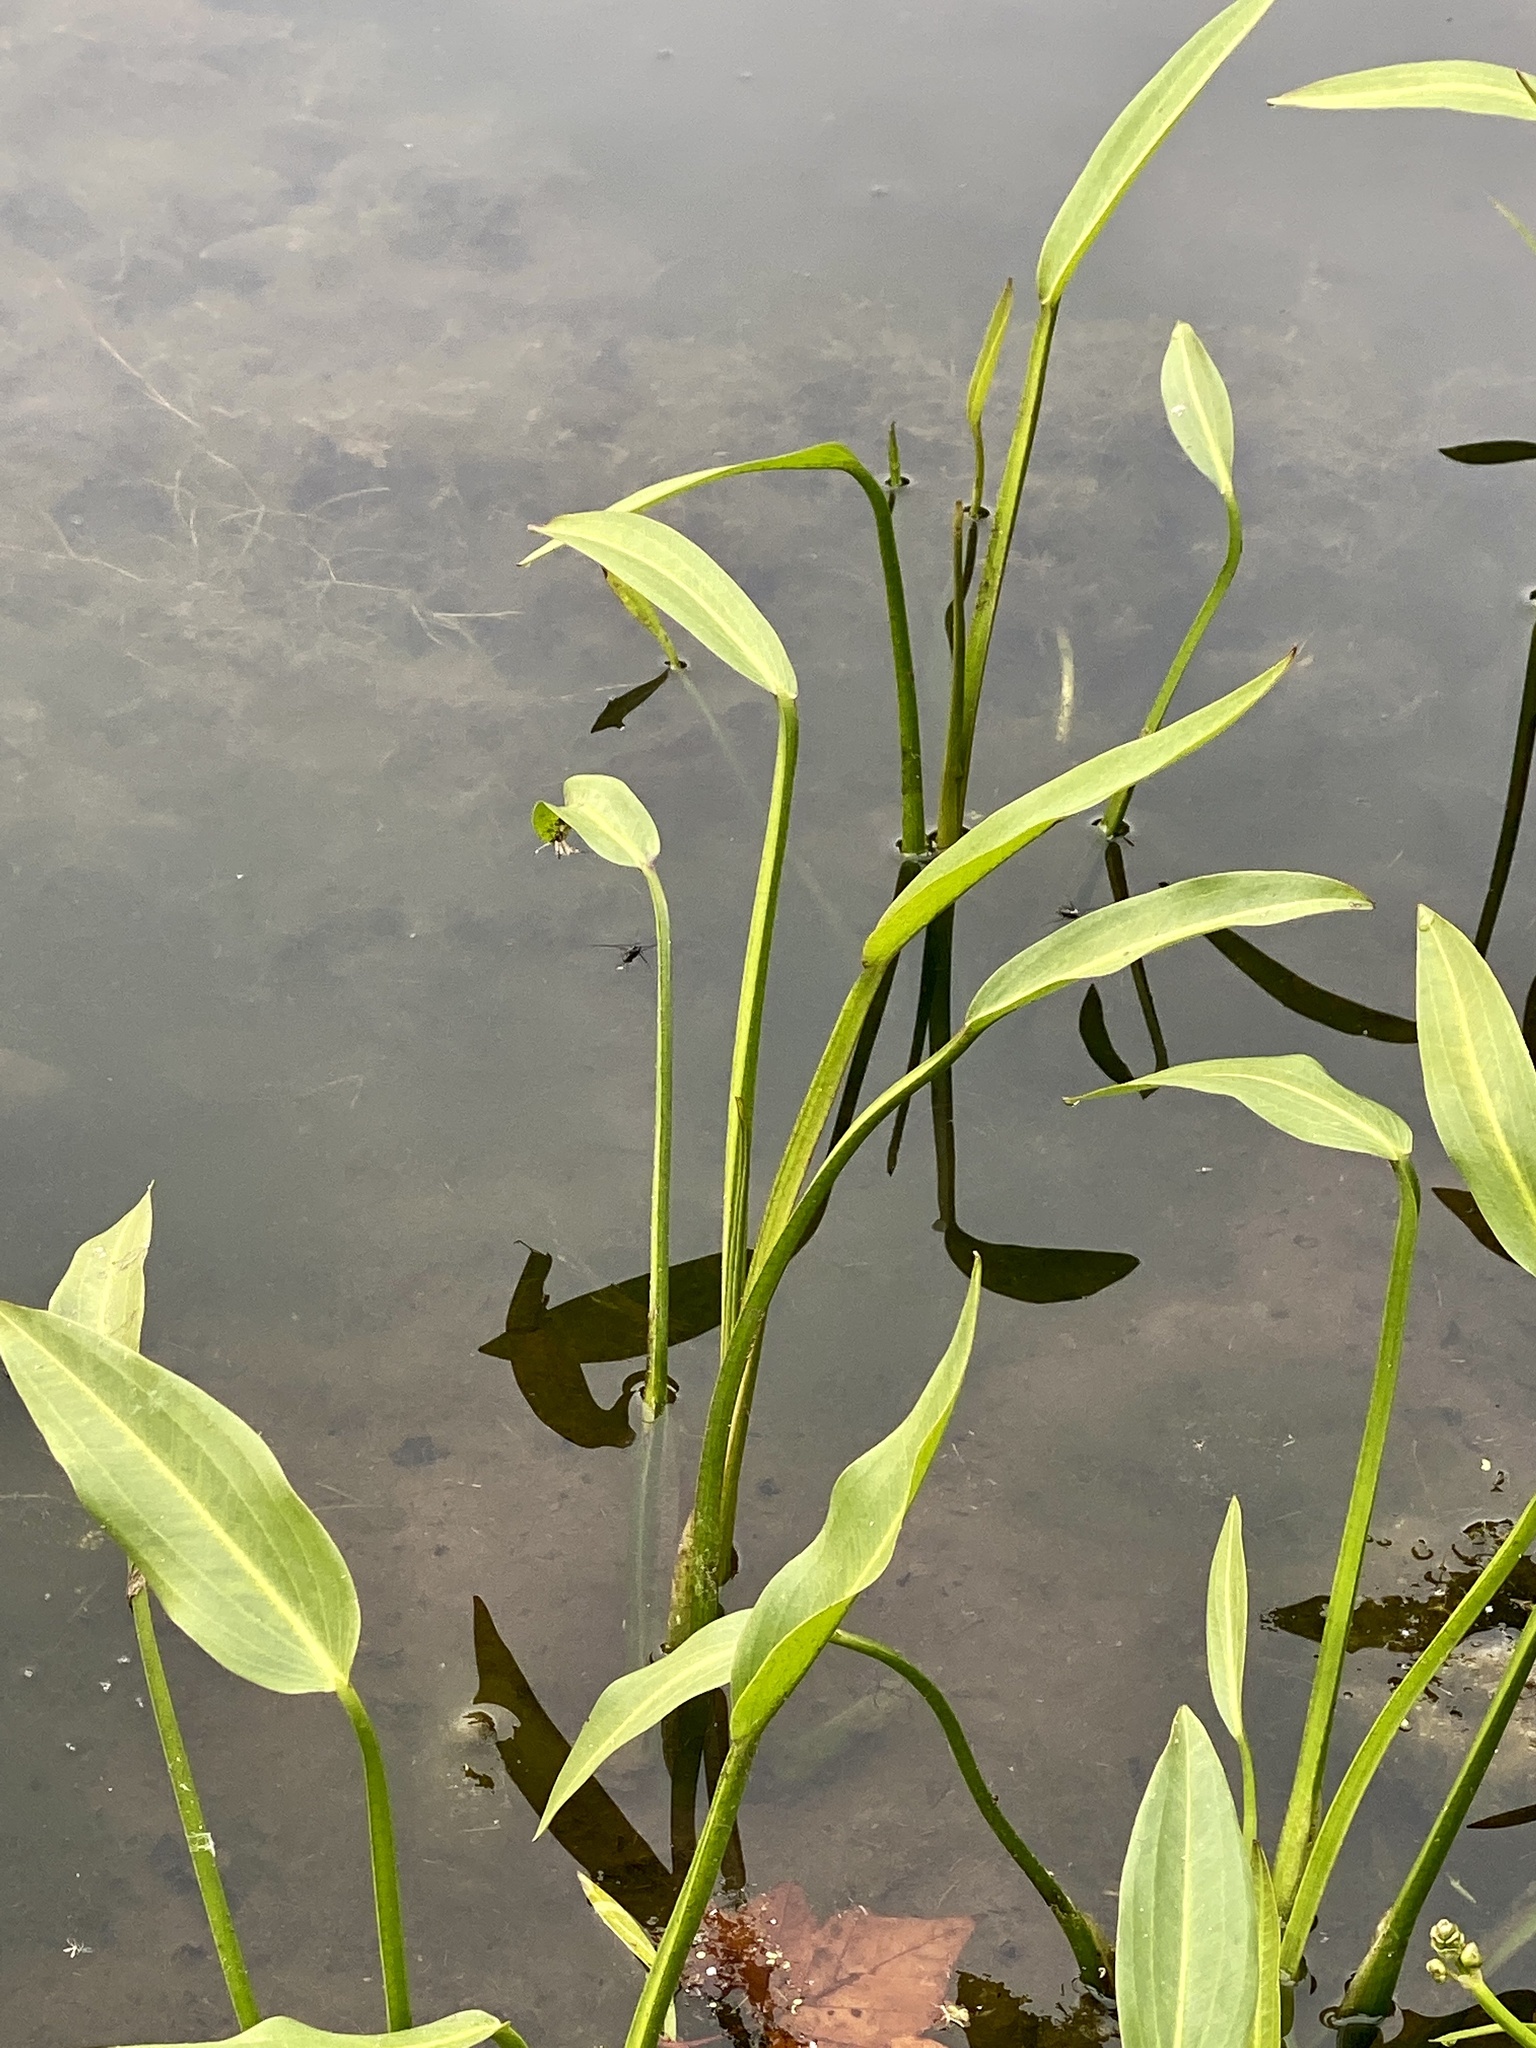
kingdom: Plantae
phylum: Tracheophyta
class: Liliopsida
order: Alismatales
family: Alismataceae
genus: Sagittaria
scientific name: Sagittaria platyphylla
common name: Broad-leaf arrowhead
